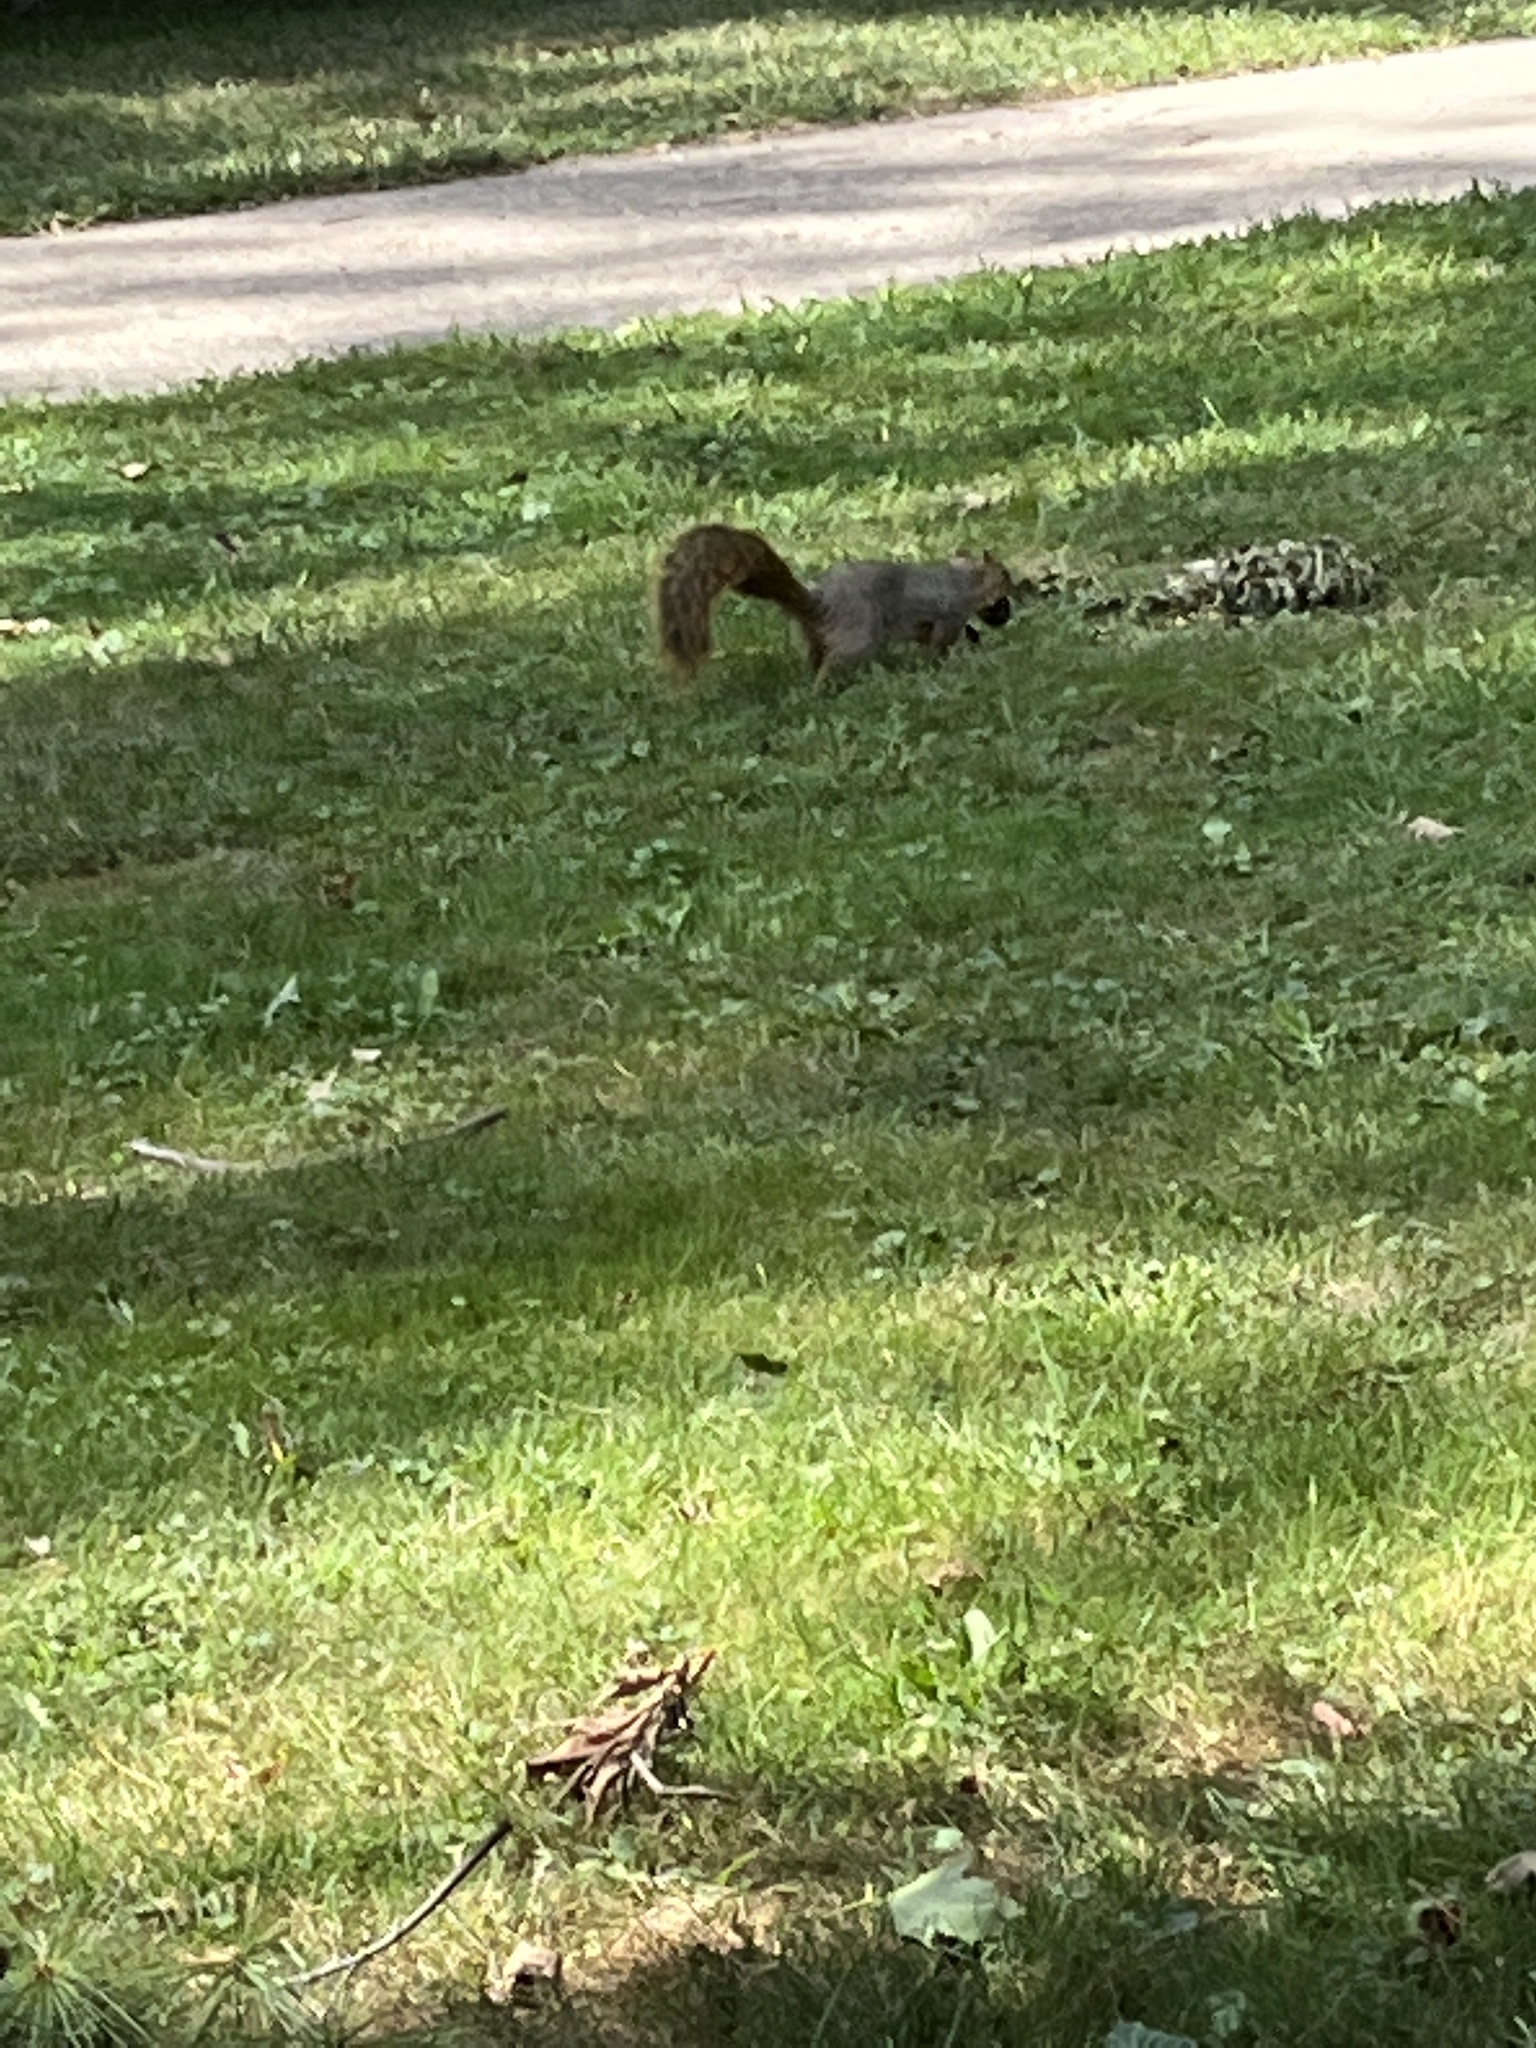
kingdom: Animalia
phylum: Chordata
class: Mammalia
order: Rodentia
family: Sciuridae
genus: Sciurus
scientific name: Sciurus niger
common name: Fox squirrel
